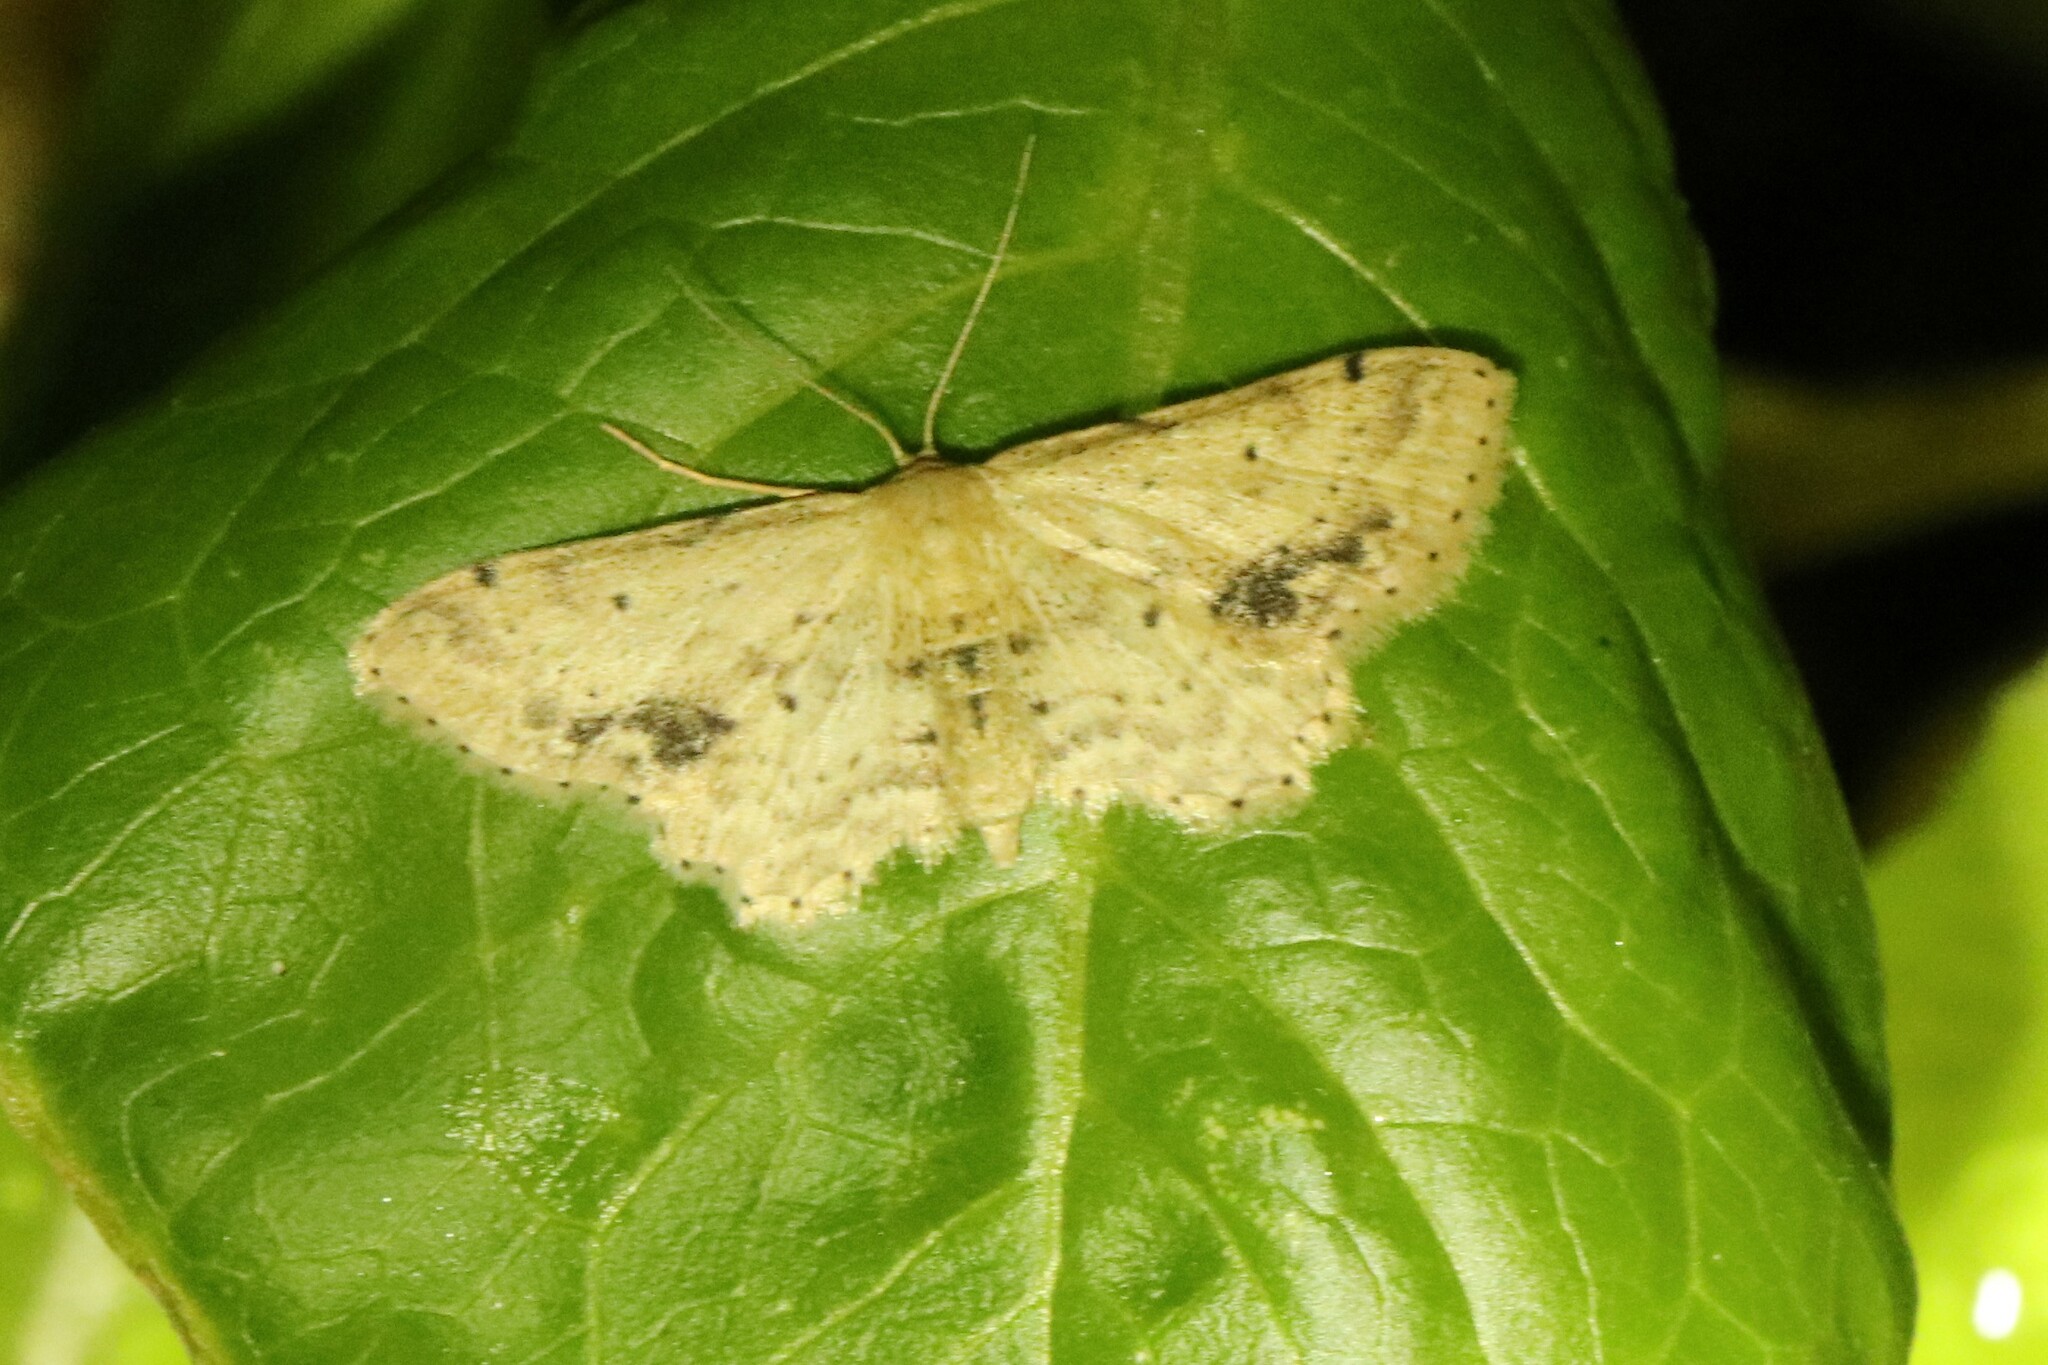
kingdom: Animalia
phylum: Arthropoda
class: Insecta
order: Lepidoptera
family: Geometridae
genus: Idaea
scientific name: Idaea dimidiata
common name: Single-dotted wave
